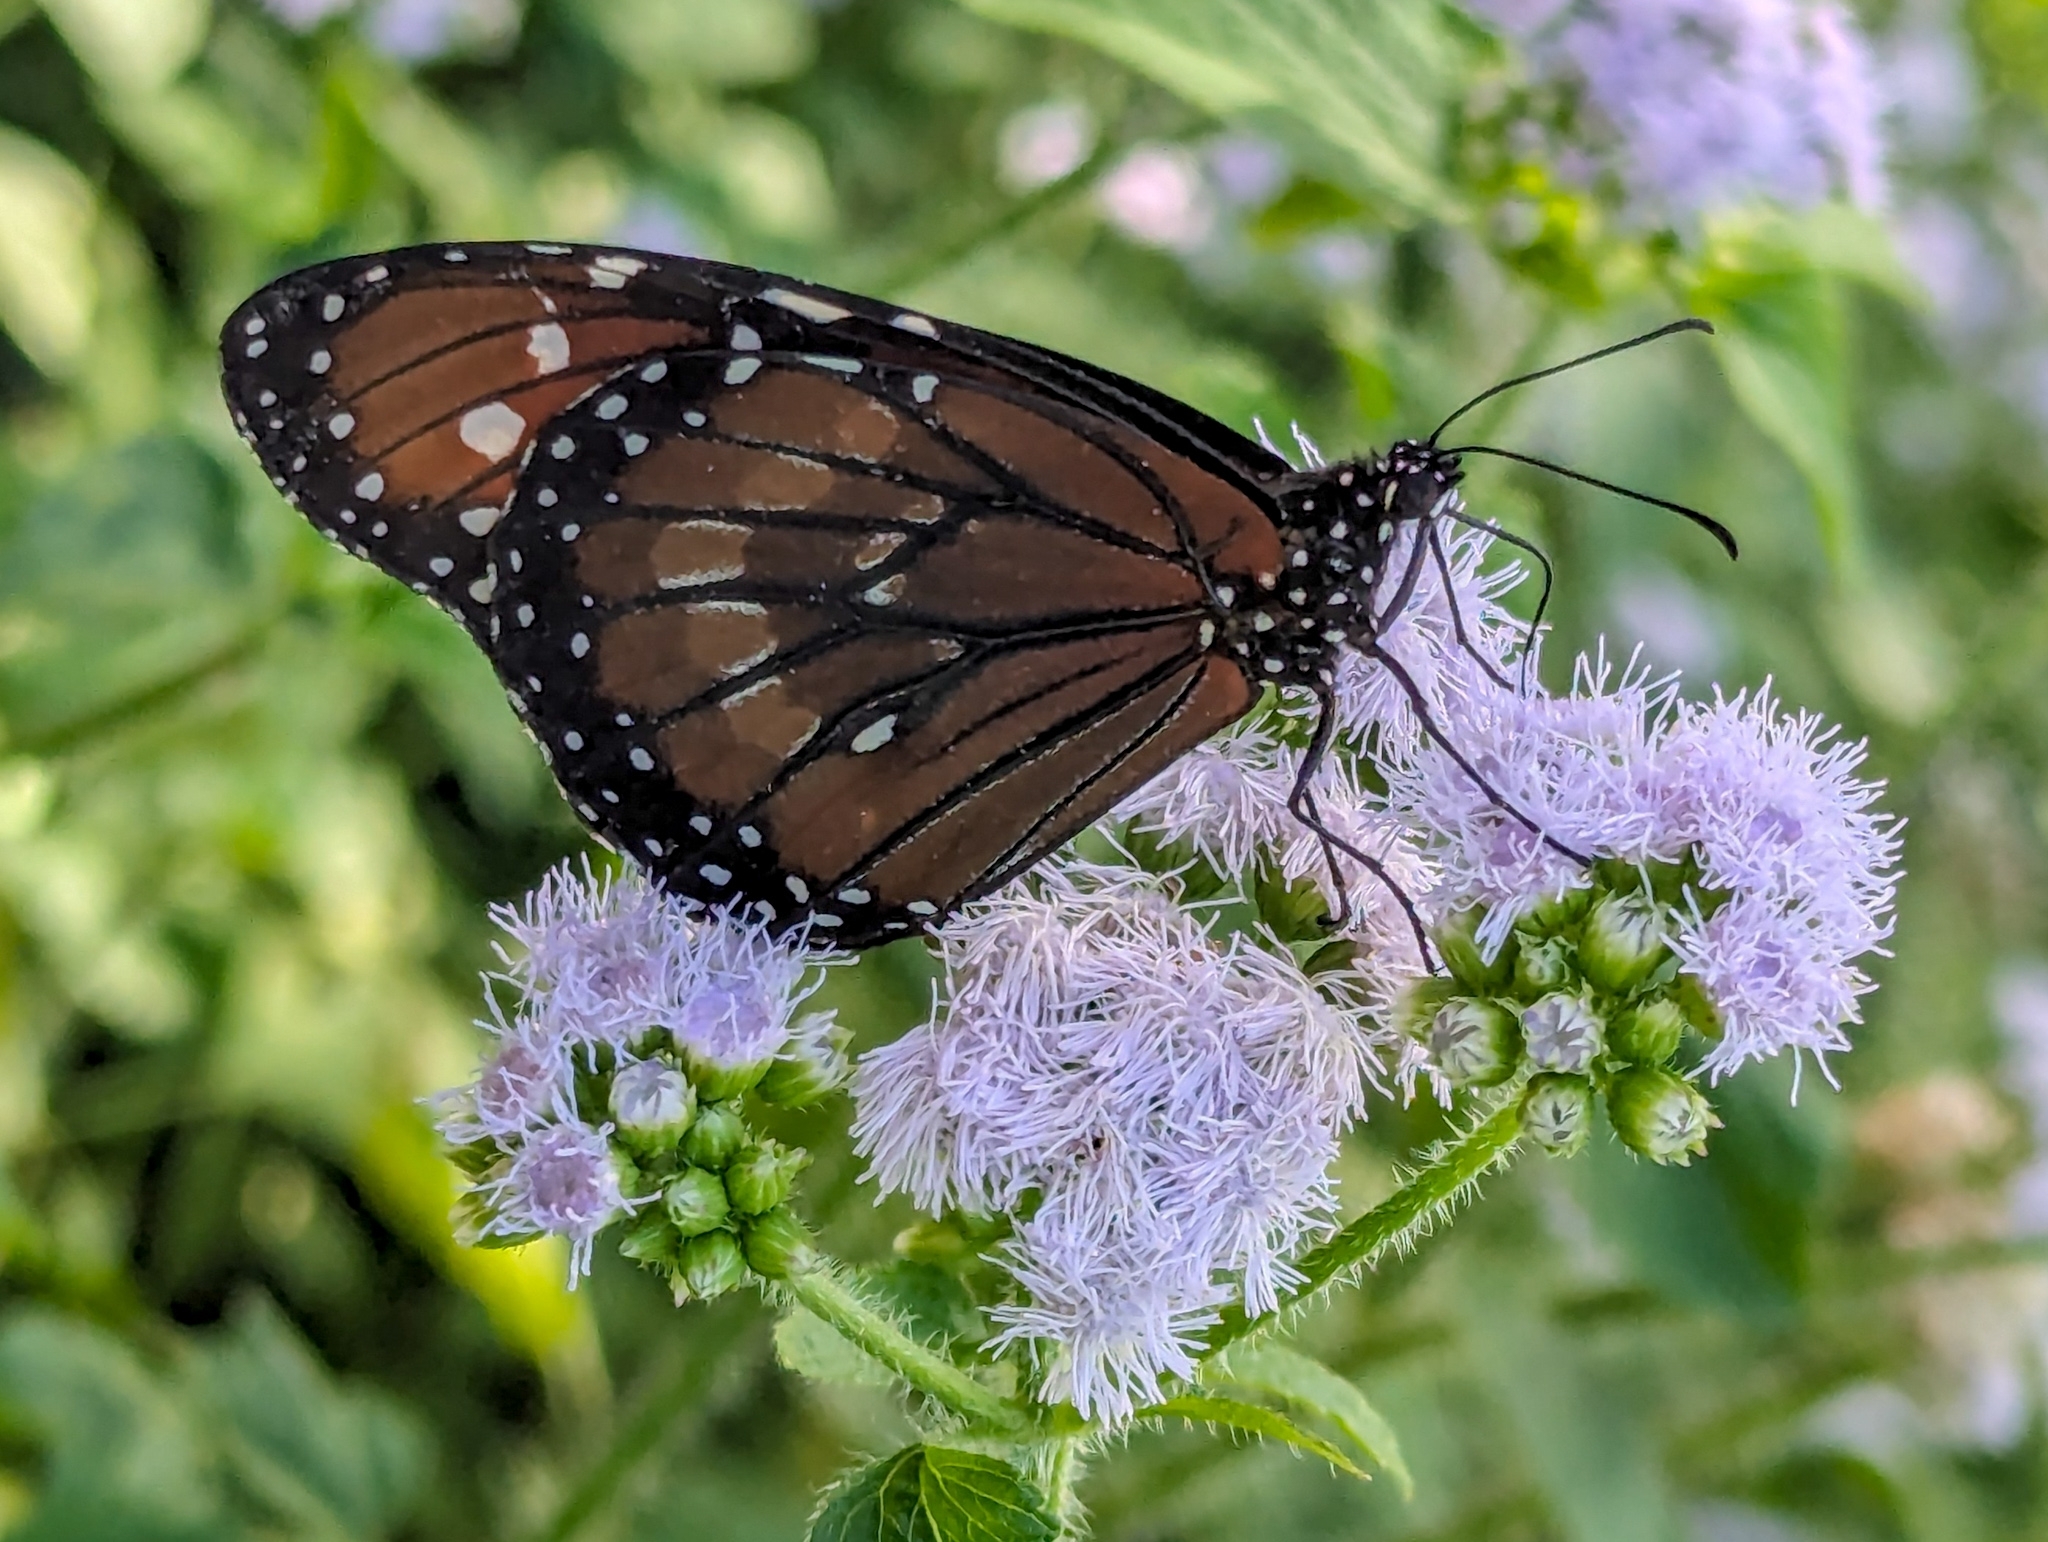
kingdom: Animalia
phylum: Arthropoda
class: Insecta
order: Lepidoptera
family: Nymphalidae
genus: Danaus
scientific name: Danaus eresimus
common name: Soldier
